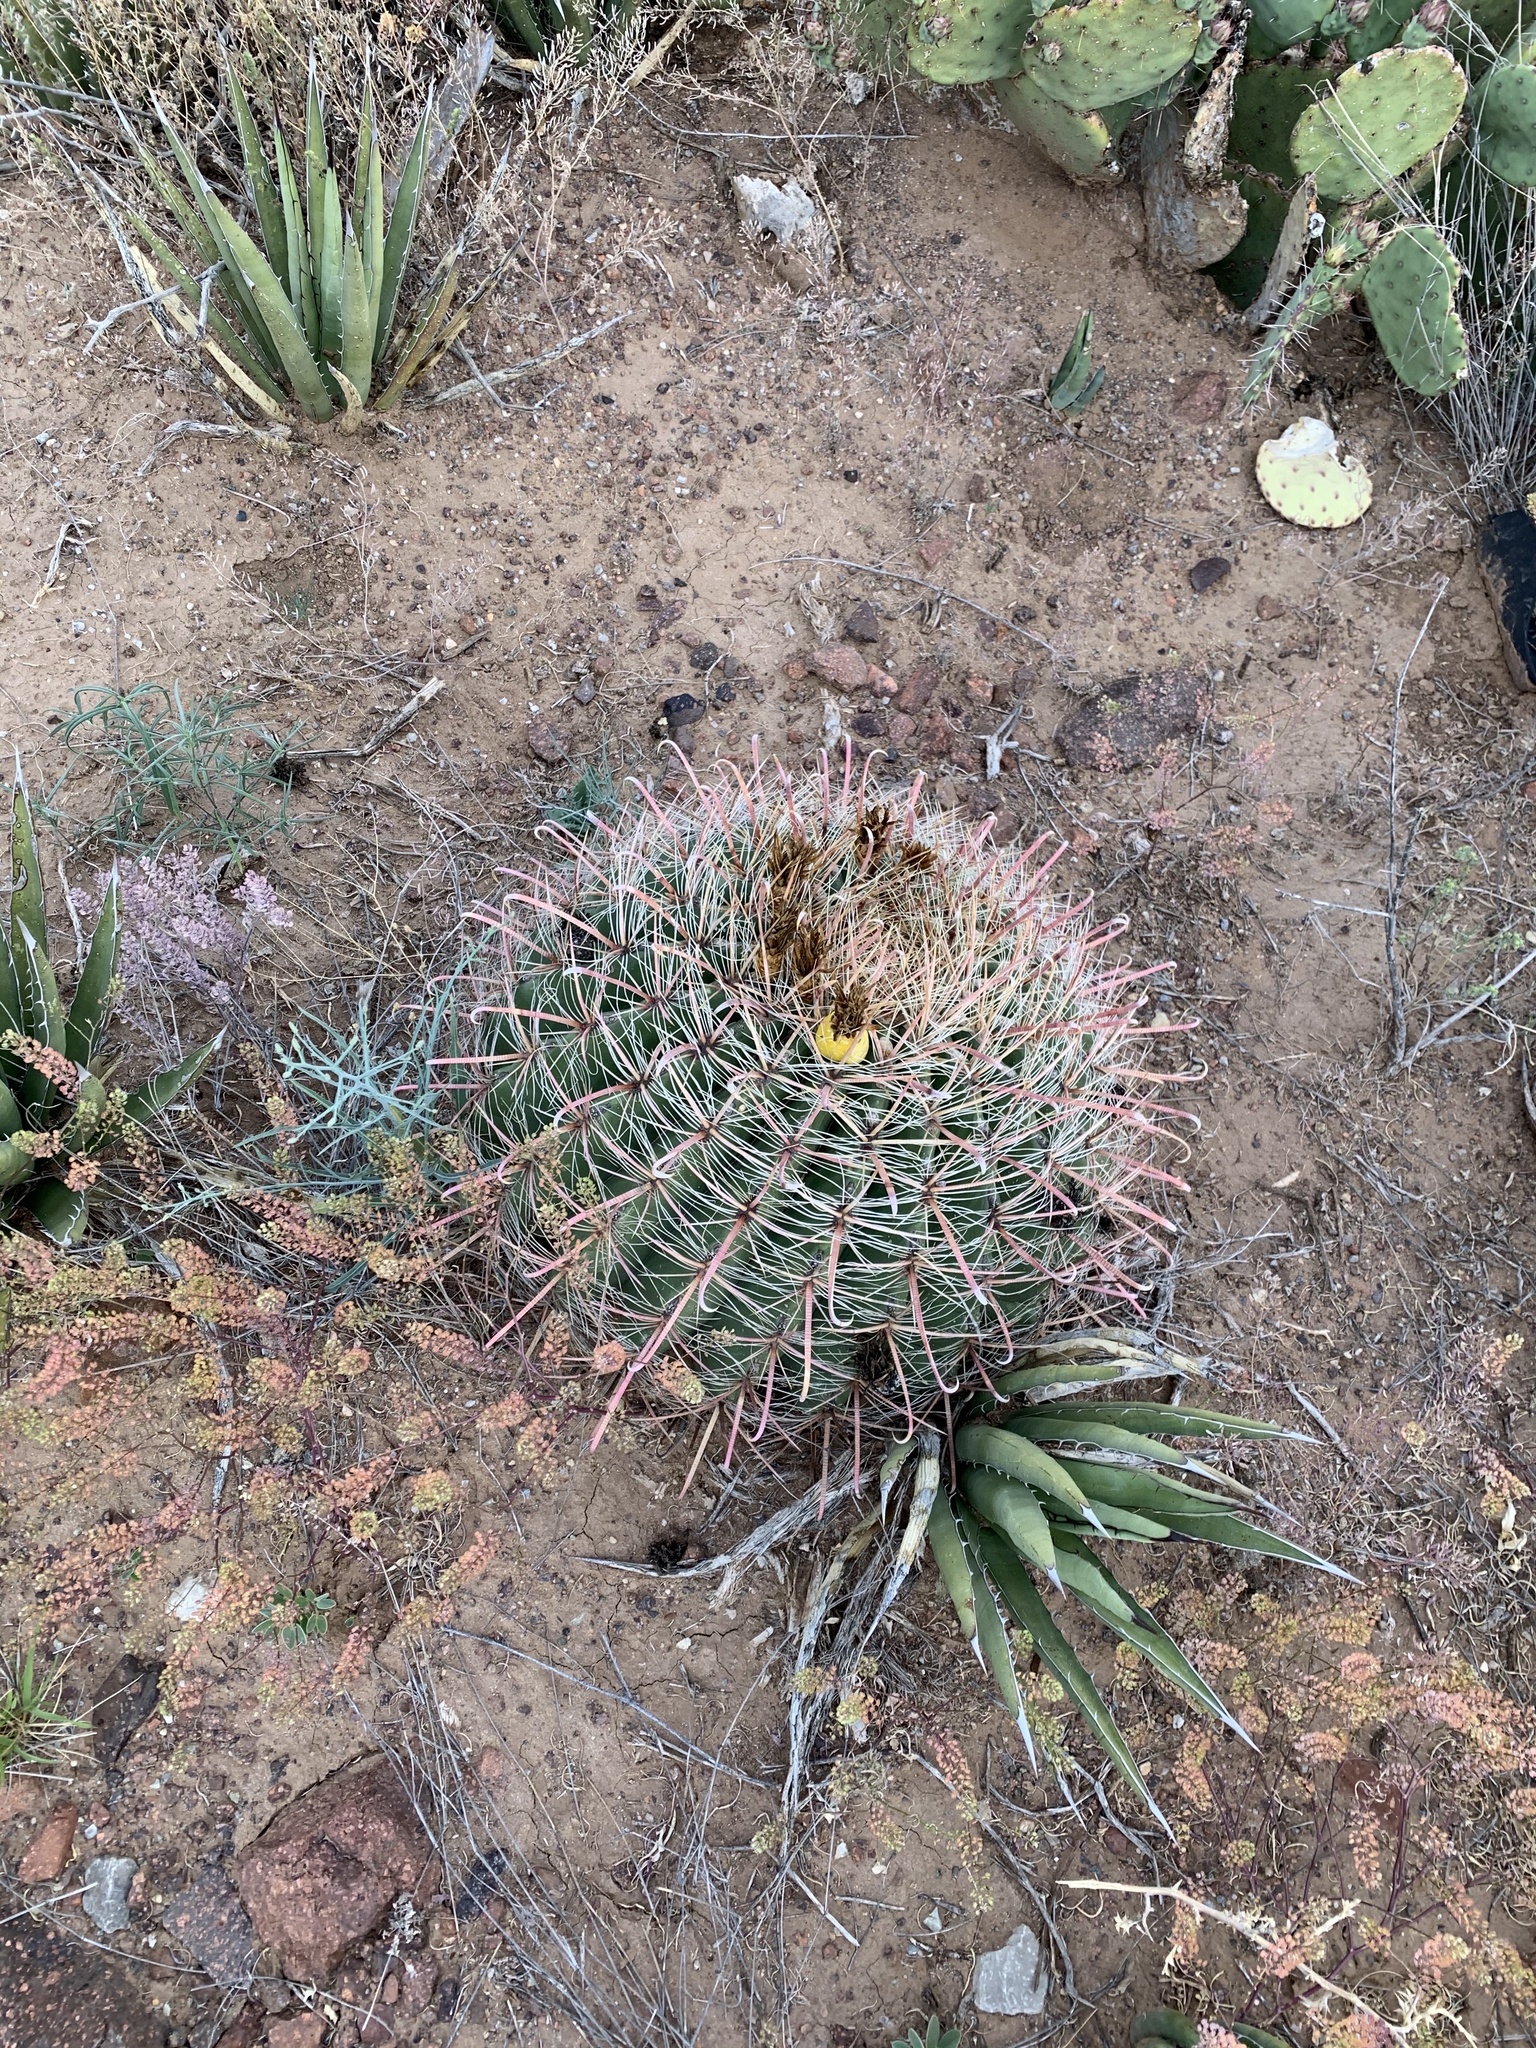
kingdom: Plantae
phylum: Tracheophyta
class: Magnoliopsida
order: Caryophyllales
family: Cactaceae
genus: Ferocactus
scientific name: Ferocactus wislizeni
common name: Candy barrel cactus
